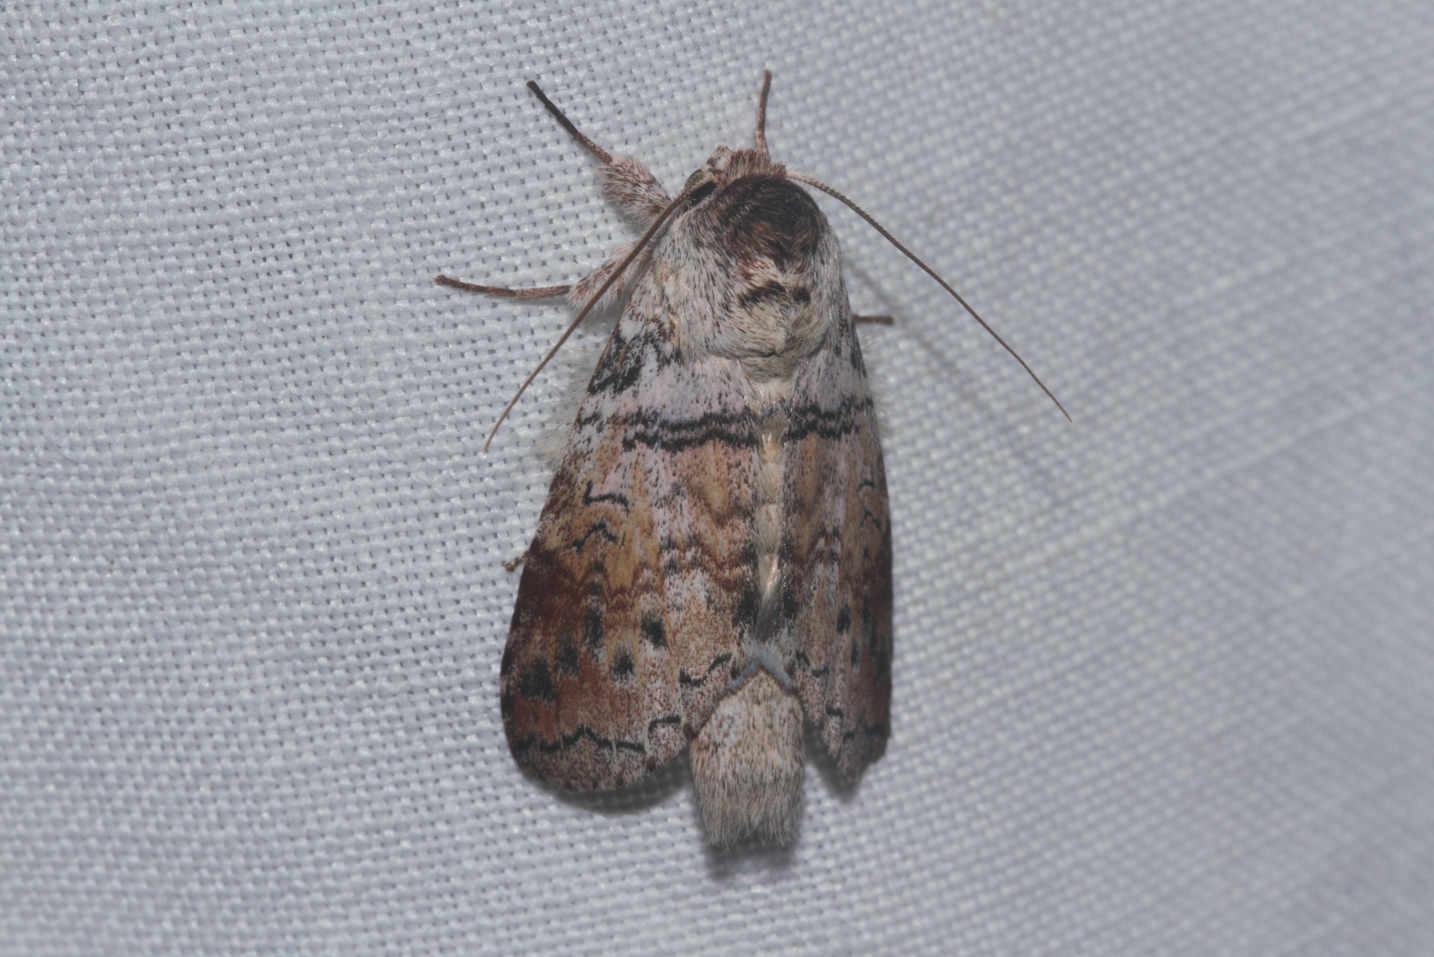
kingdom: Animalia
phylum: Arthropoda
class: Insecta
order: Lepidoptera
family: Notodontidae
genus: Rifargia
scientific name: Rifargia condita
